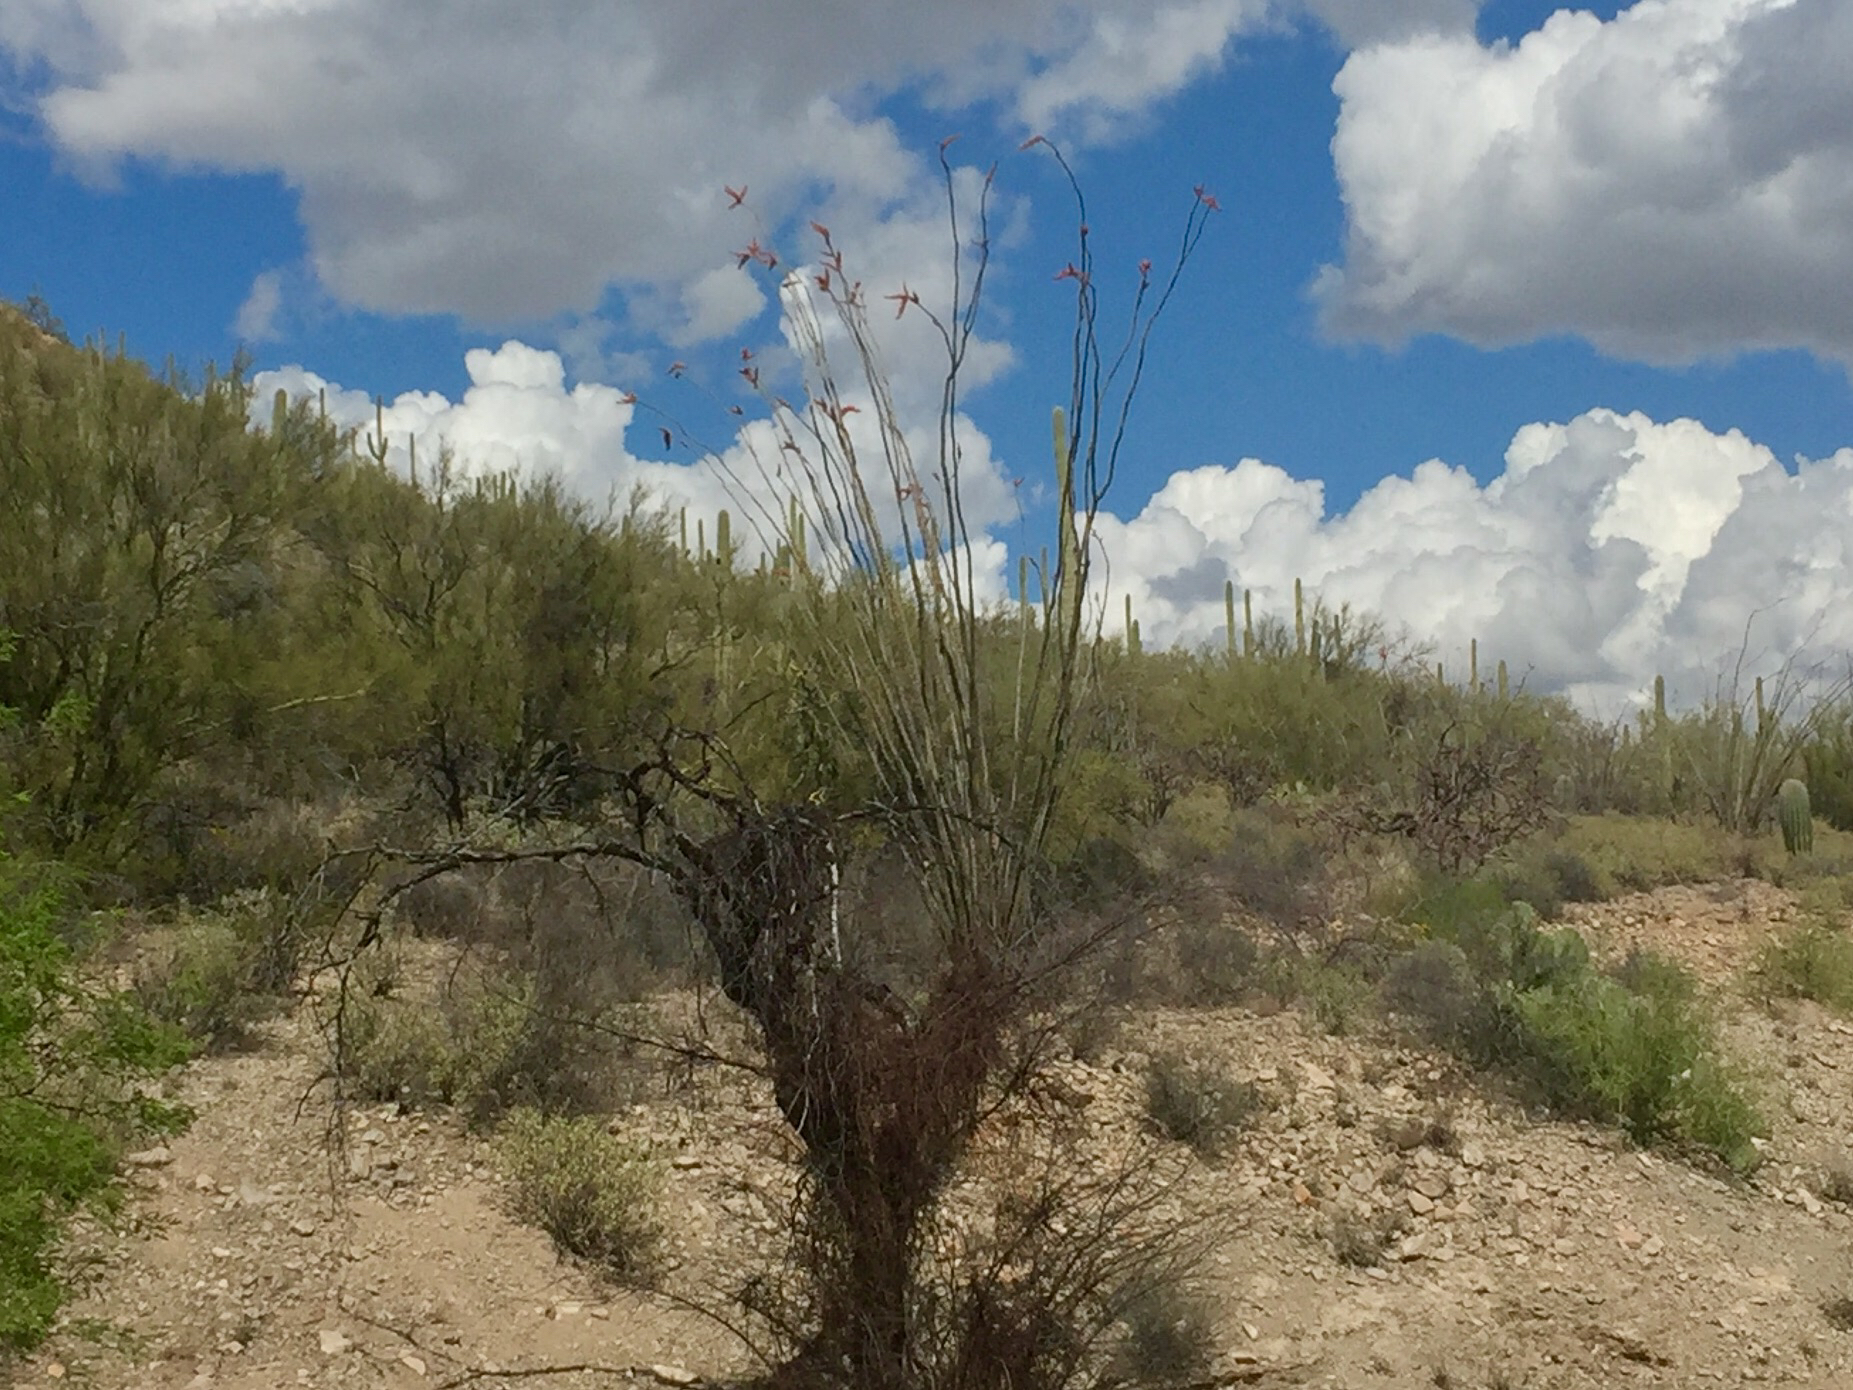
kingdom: Plantae
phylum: Tracheophyta
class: Magnoliopsida
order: Ericales
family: Fouquieriaceae
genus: Fouquieria
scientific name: Fouquieria splendens
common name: Vine-cactus
